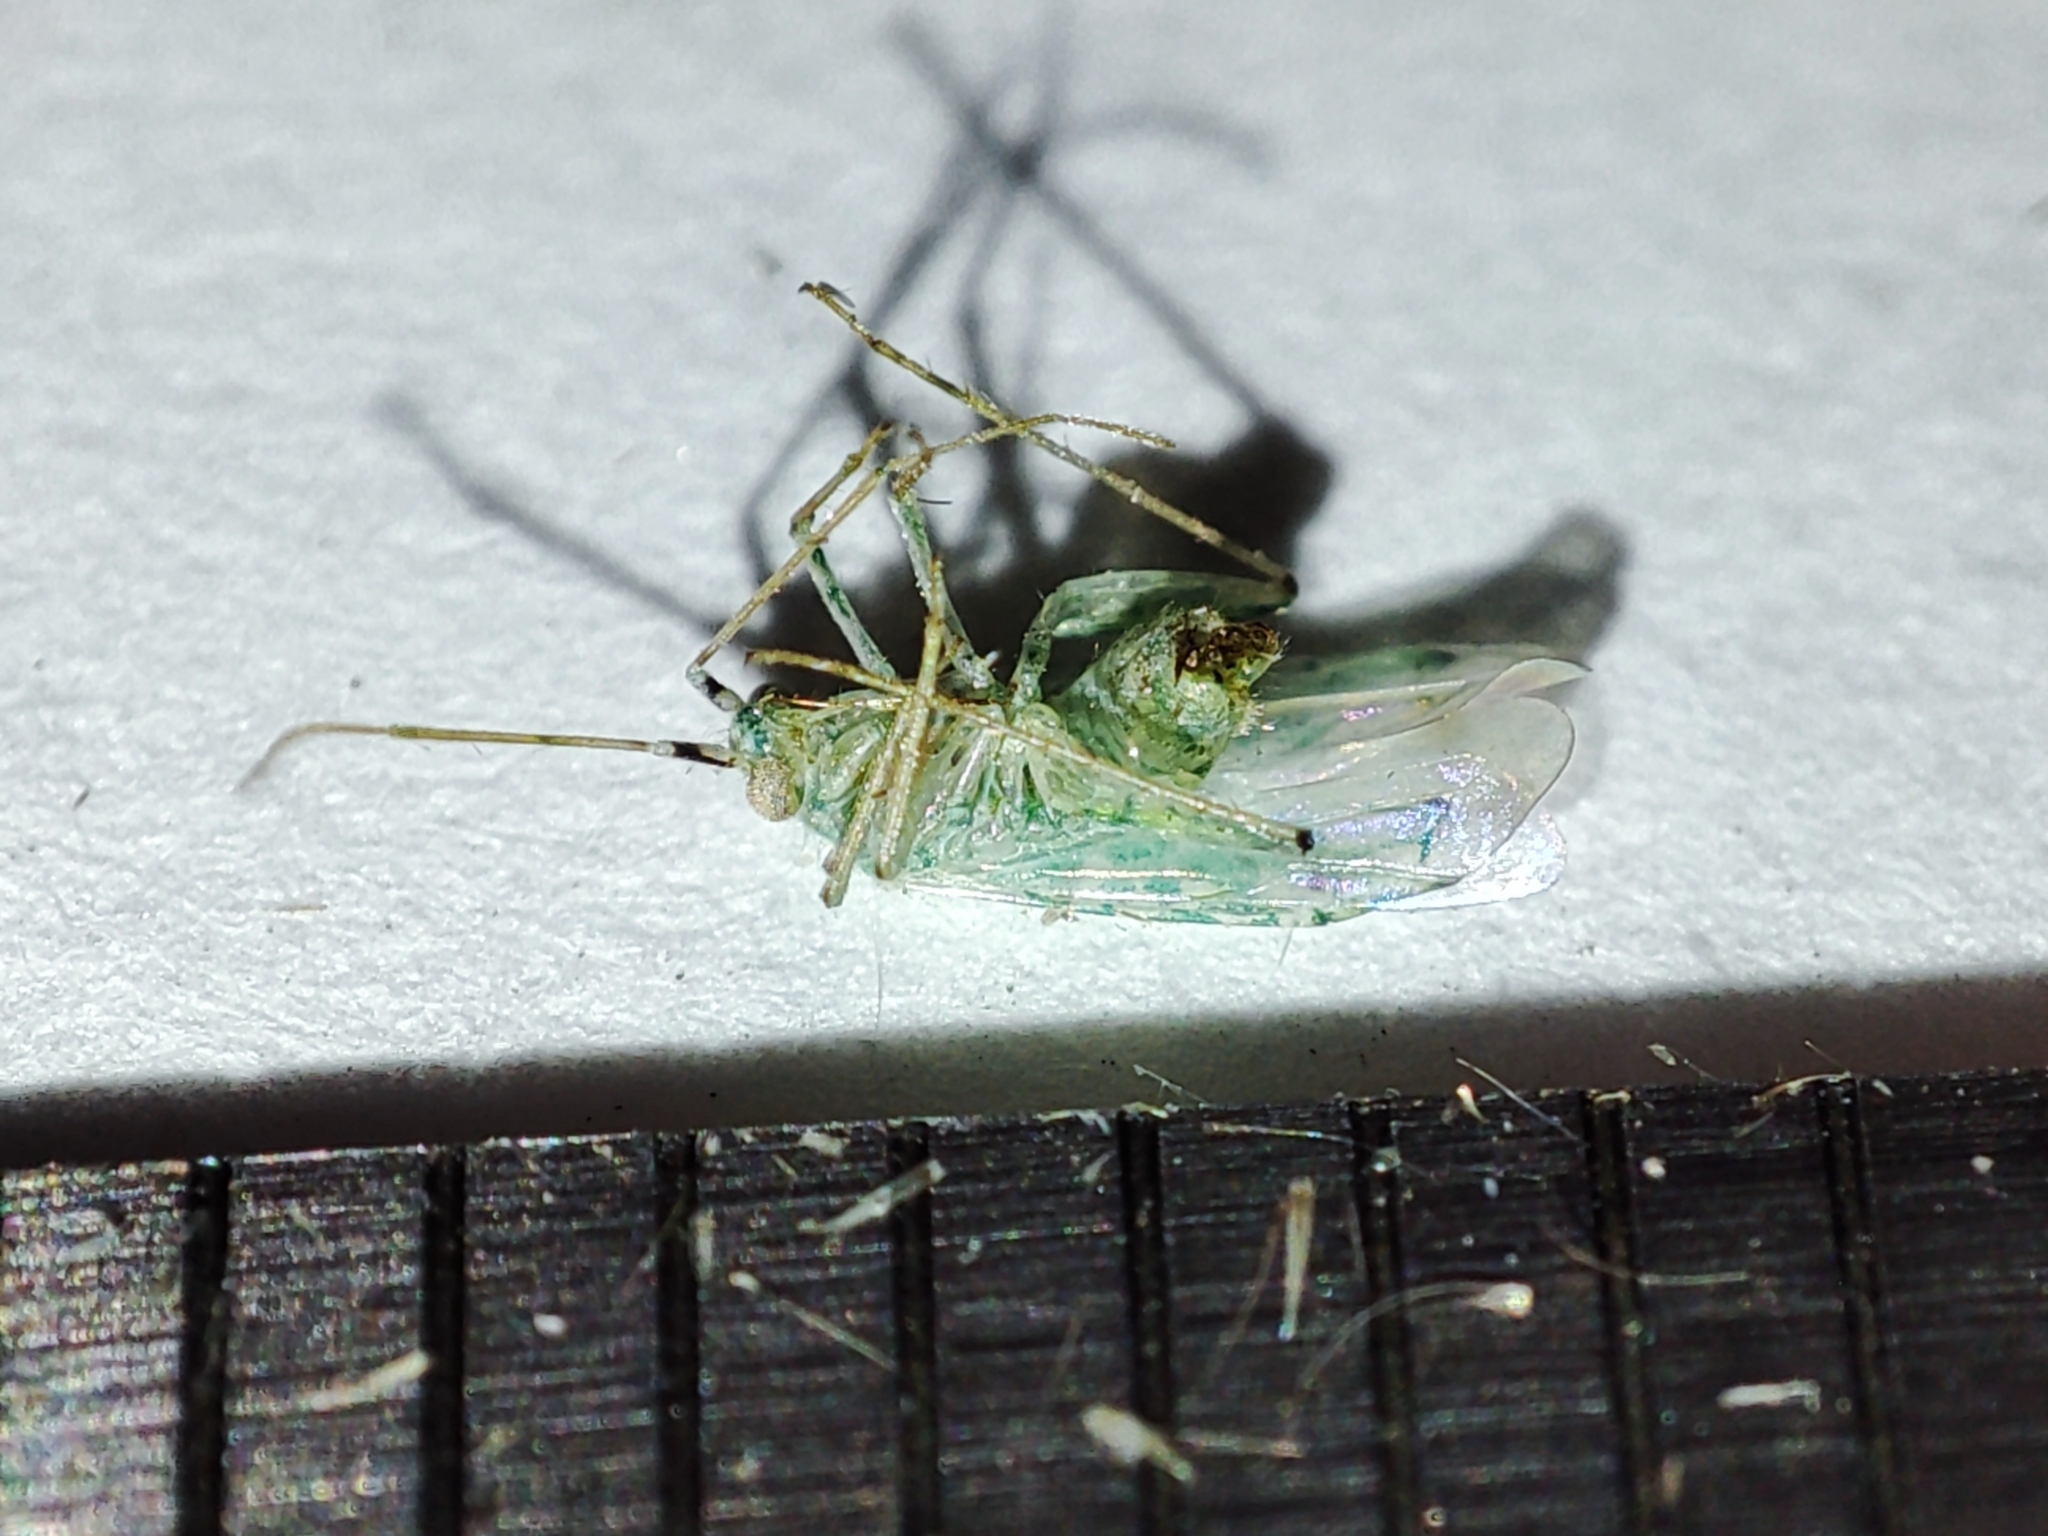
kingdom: Animalia
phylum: Arthropoda
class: Insecta
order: Hemiptera
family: Miridae
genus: Reuteria
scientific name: Reuteria marqueti
